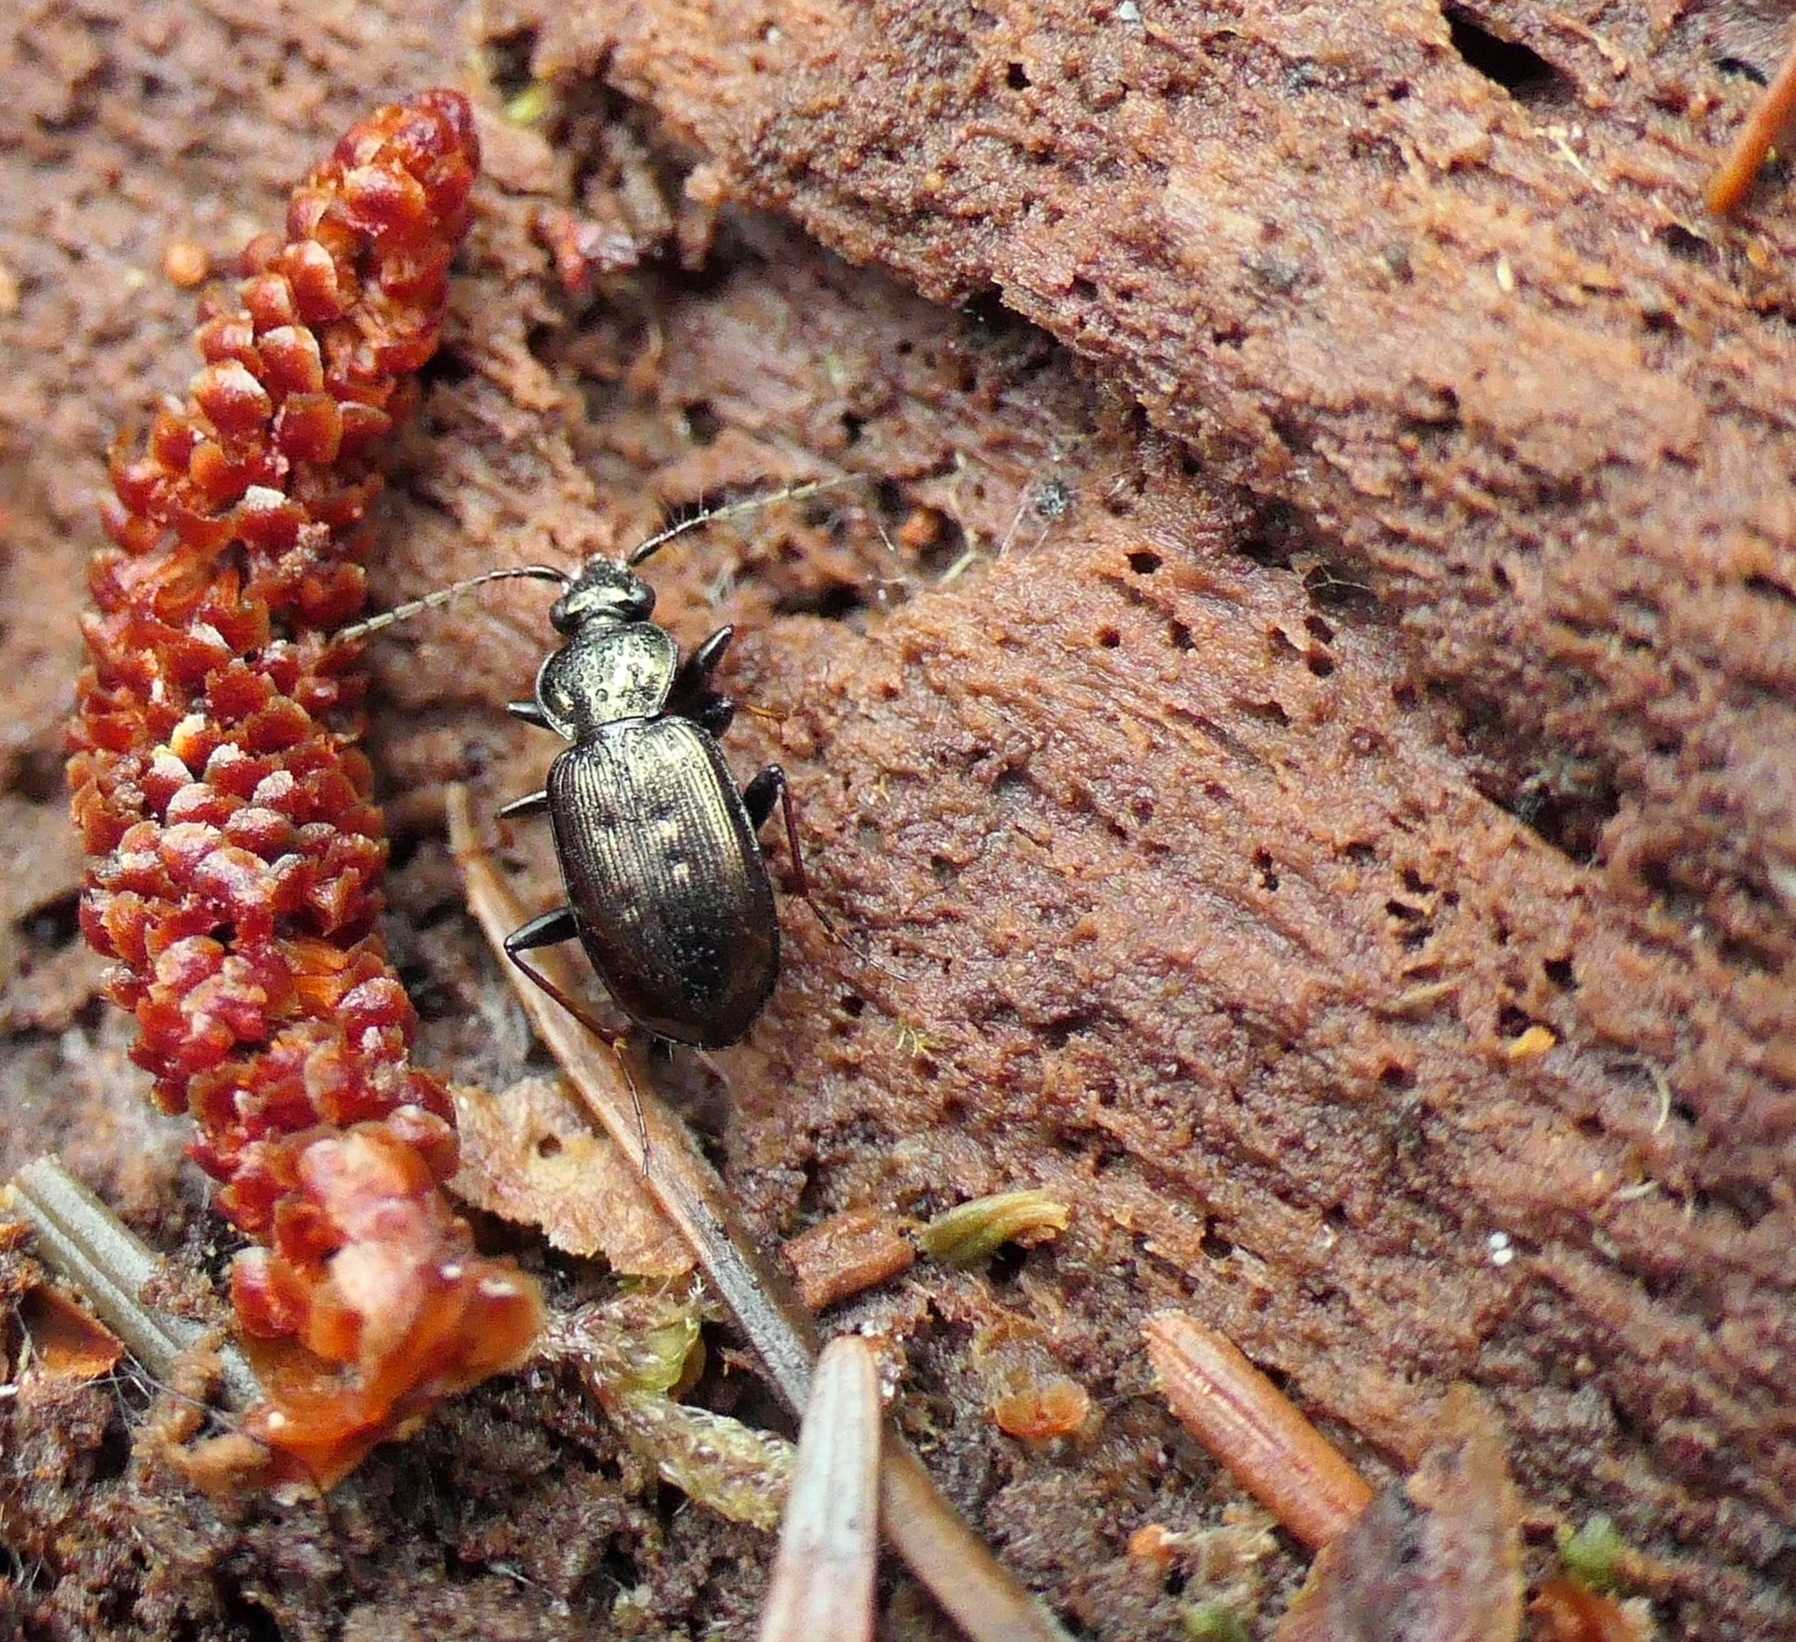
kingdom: Animalia
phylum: Arthropoda
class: Insecta
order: Coleoptera
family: Carabidae
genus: Loricera
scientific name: Loricera pilicornis
